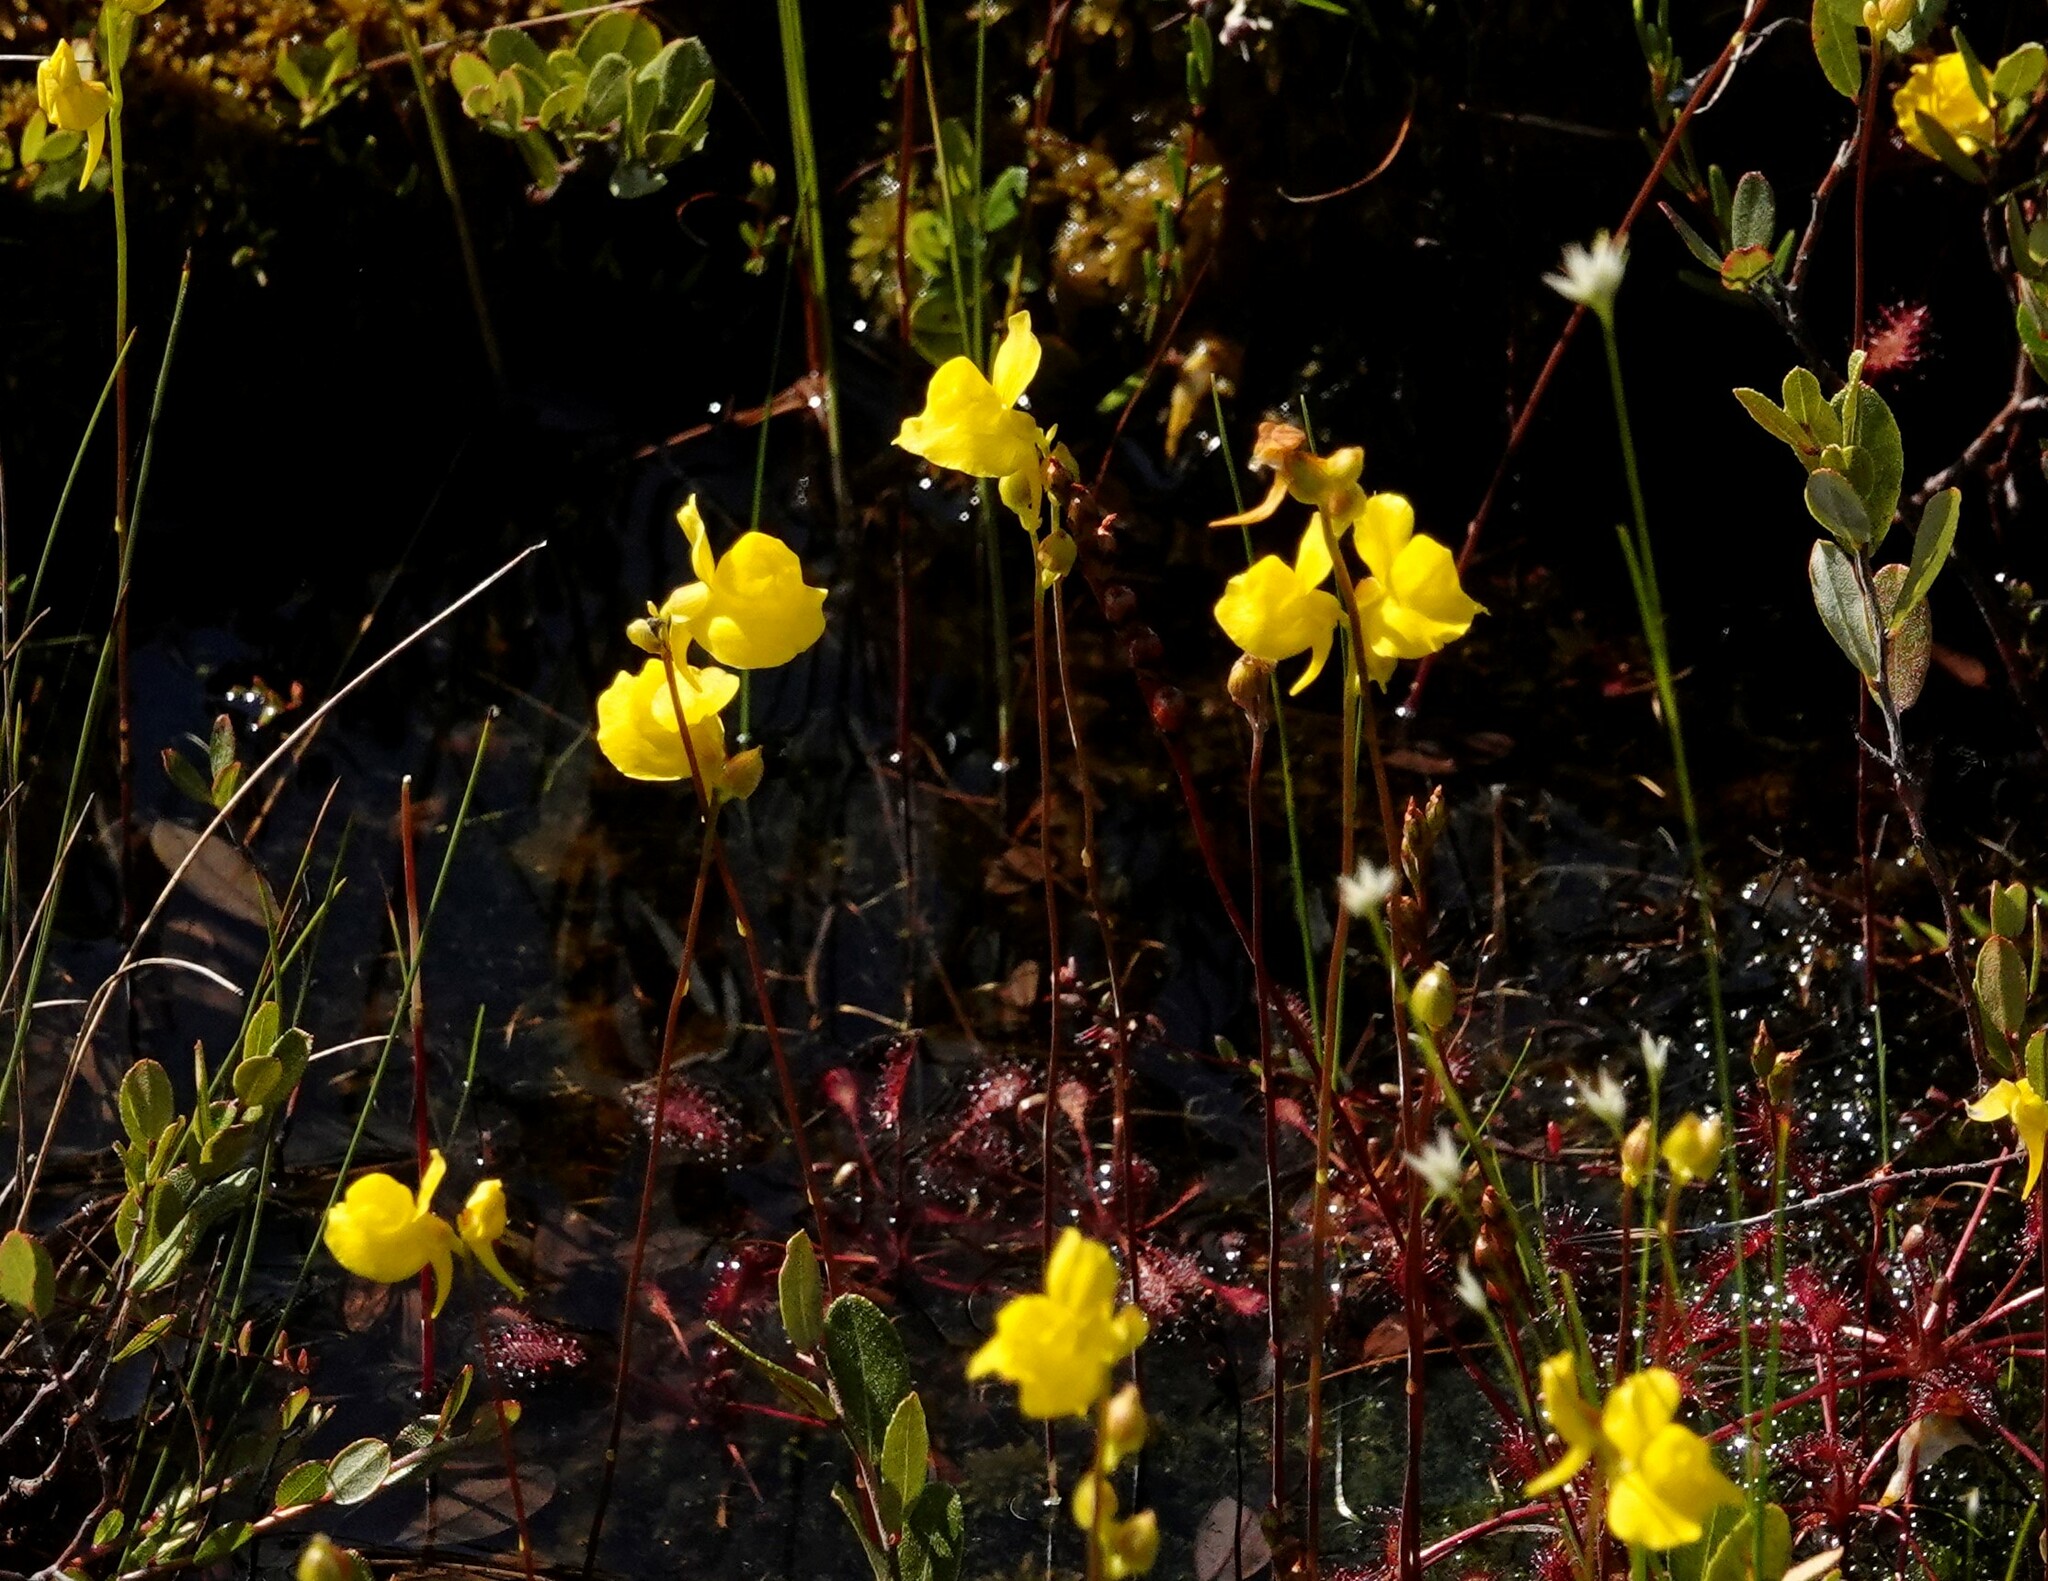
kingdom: Plantae
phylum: Tracheophyta
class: Magnoliopsida
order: Lamiales
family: Lentibulariaceae
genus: Utricularia
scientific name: Utricularia cornuta
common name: Horned bladderwort
